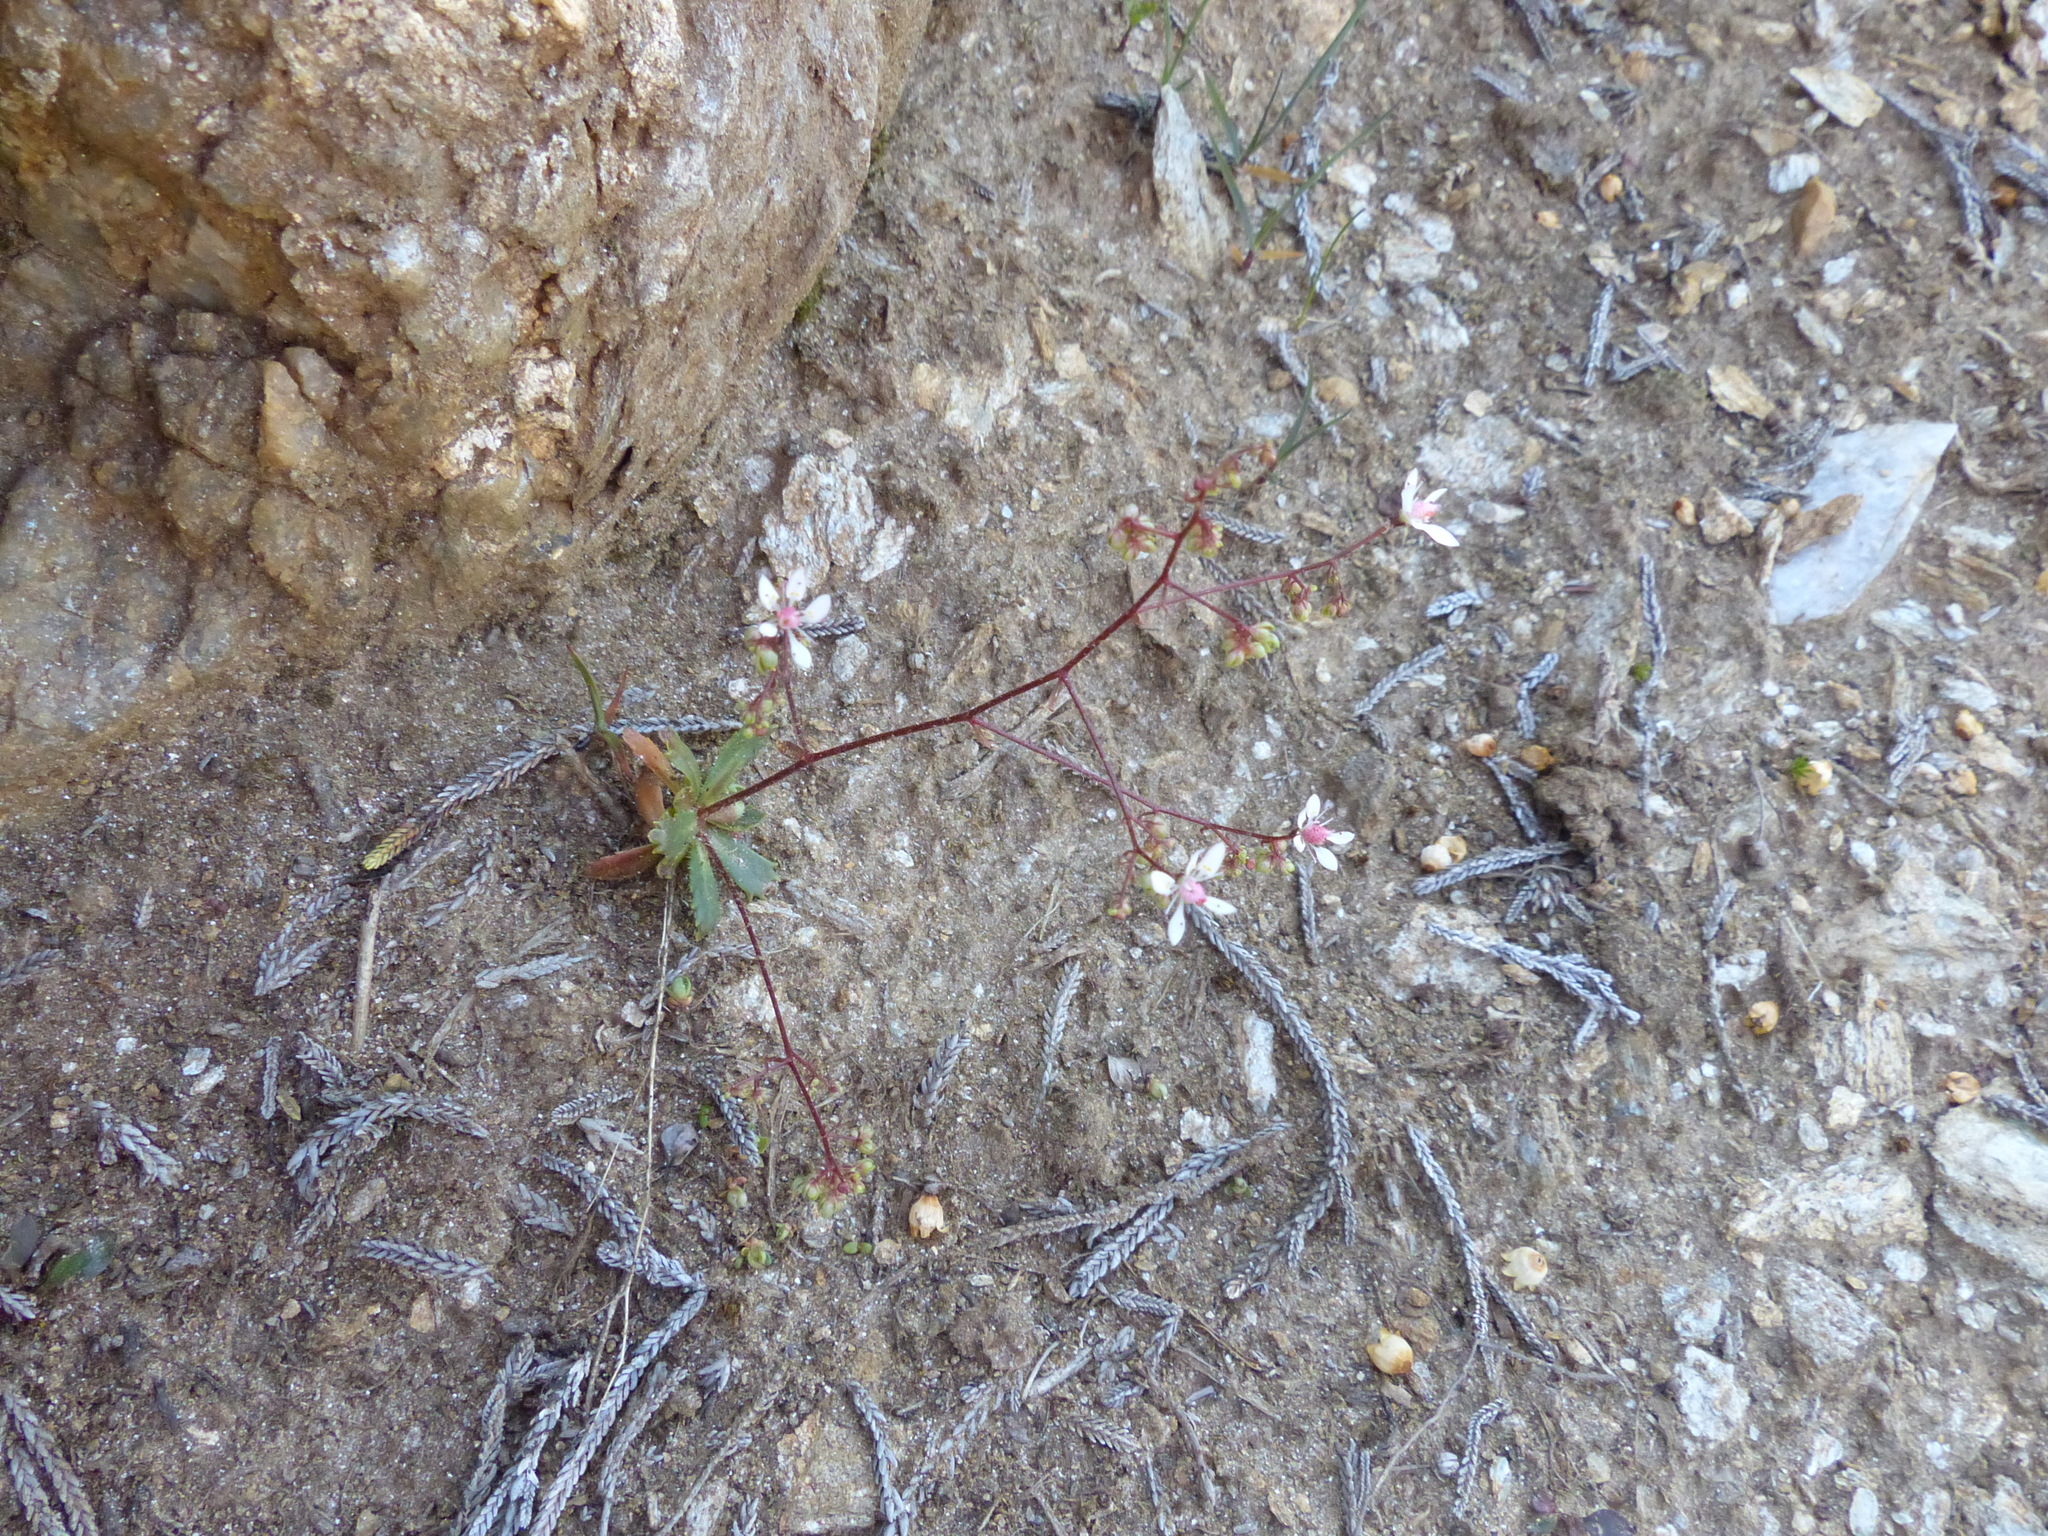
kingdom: Plantae
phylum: Tracheophyta
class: Magnoliopsida
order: Saxifragales
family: Saxifragaceae
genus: Micranthes
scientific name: Micranthes ferruginea
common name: Rusty saxifrage
